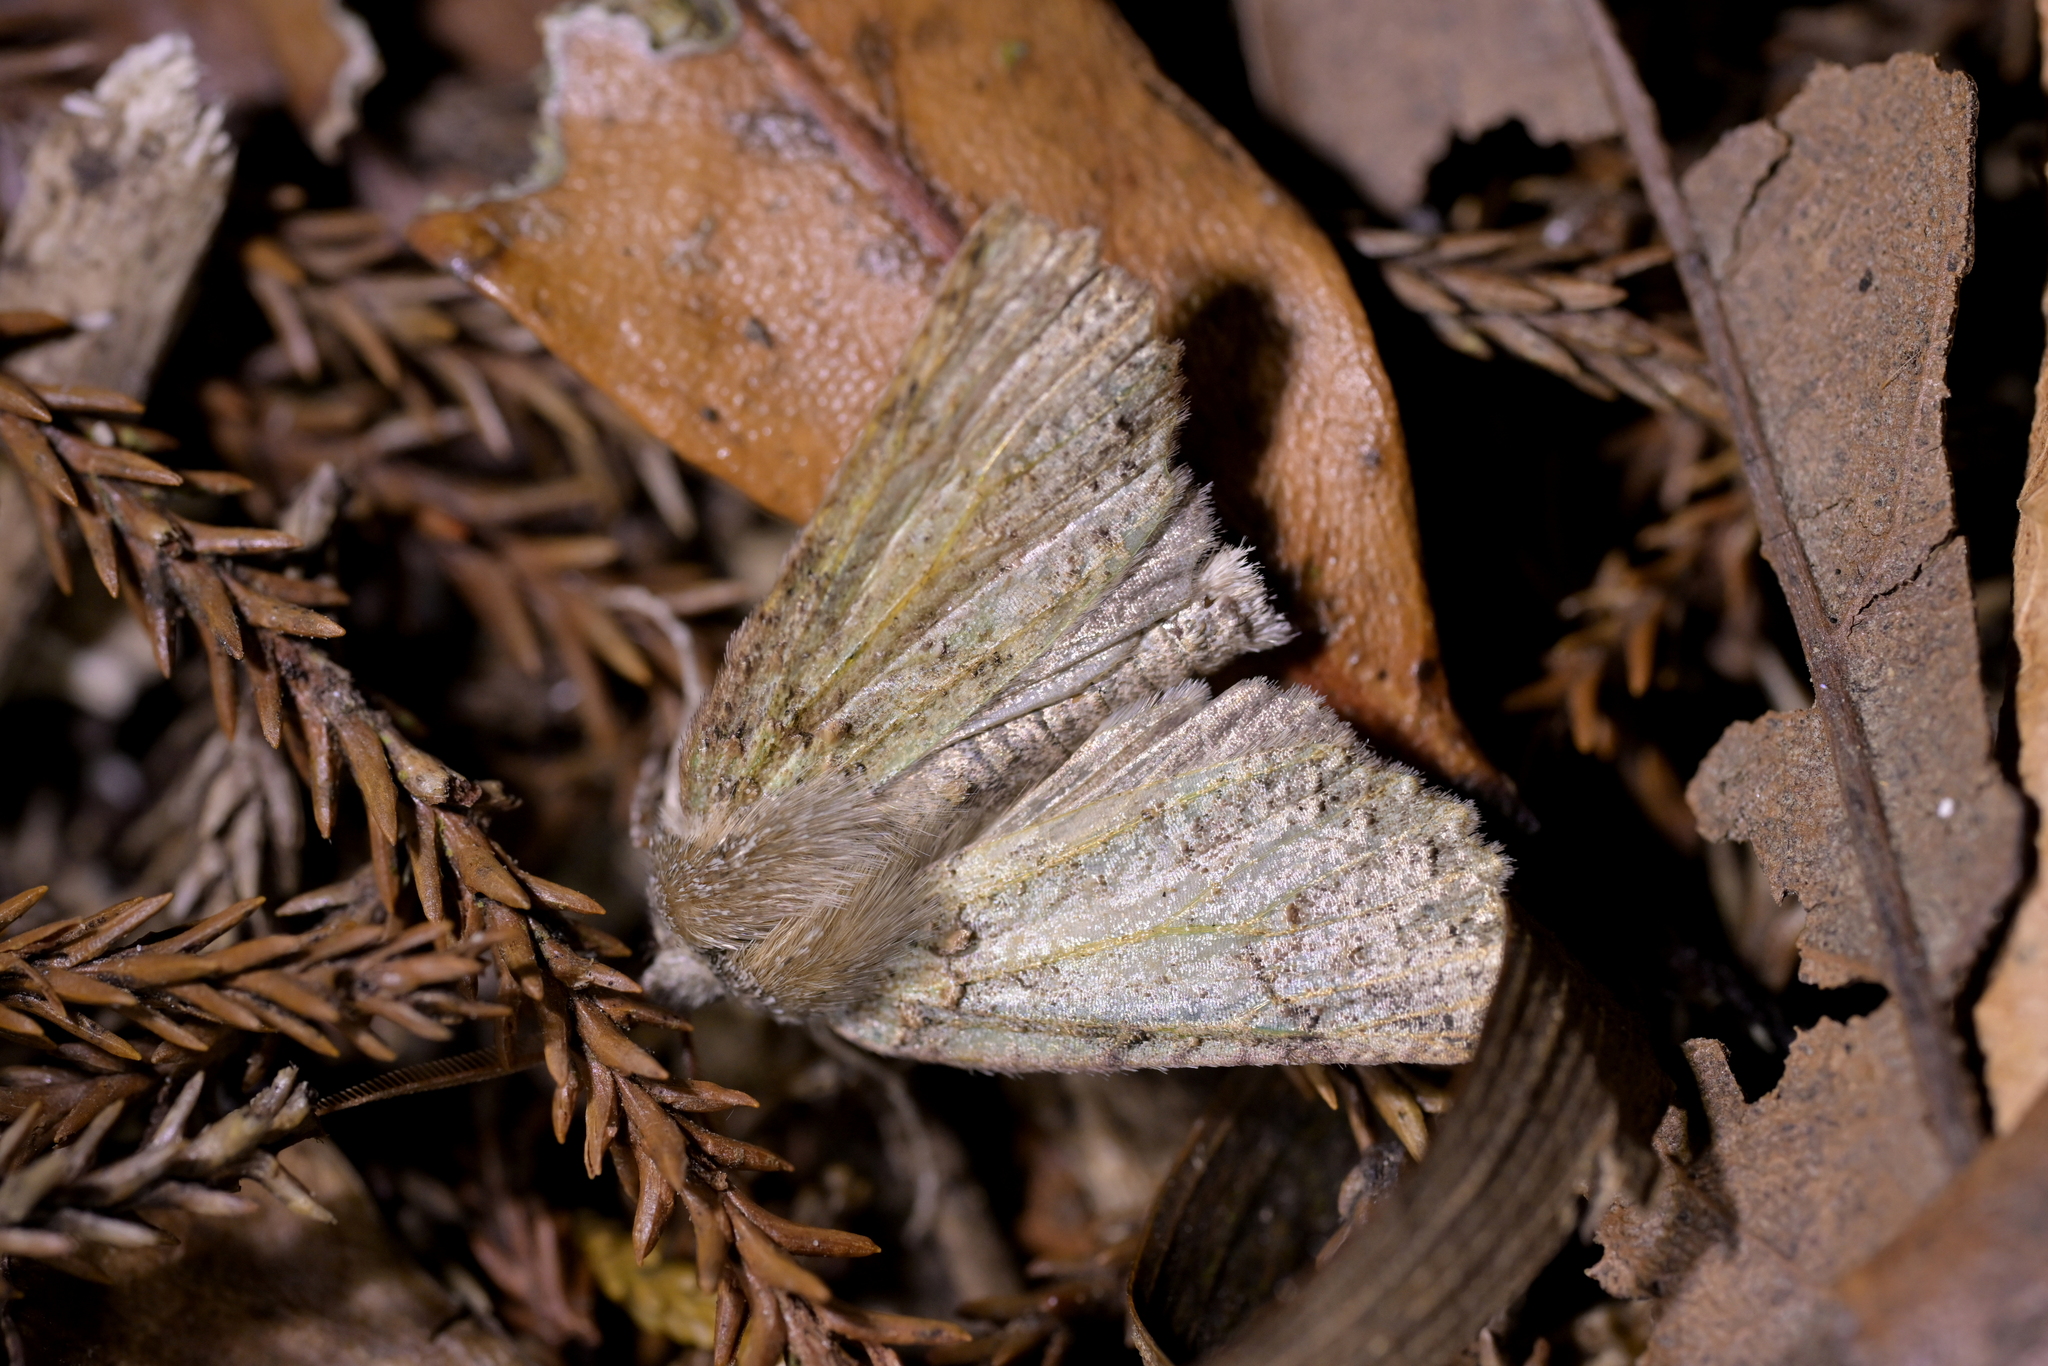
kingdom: Animalia
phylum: Arthropoda
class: Insecta
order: Lepidoptera
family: Geometridae
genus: Declana
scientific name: Declana floccosa
